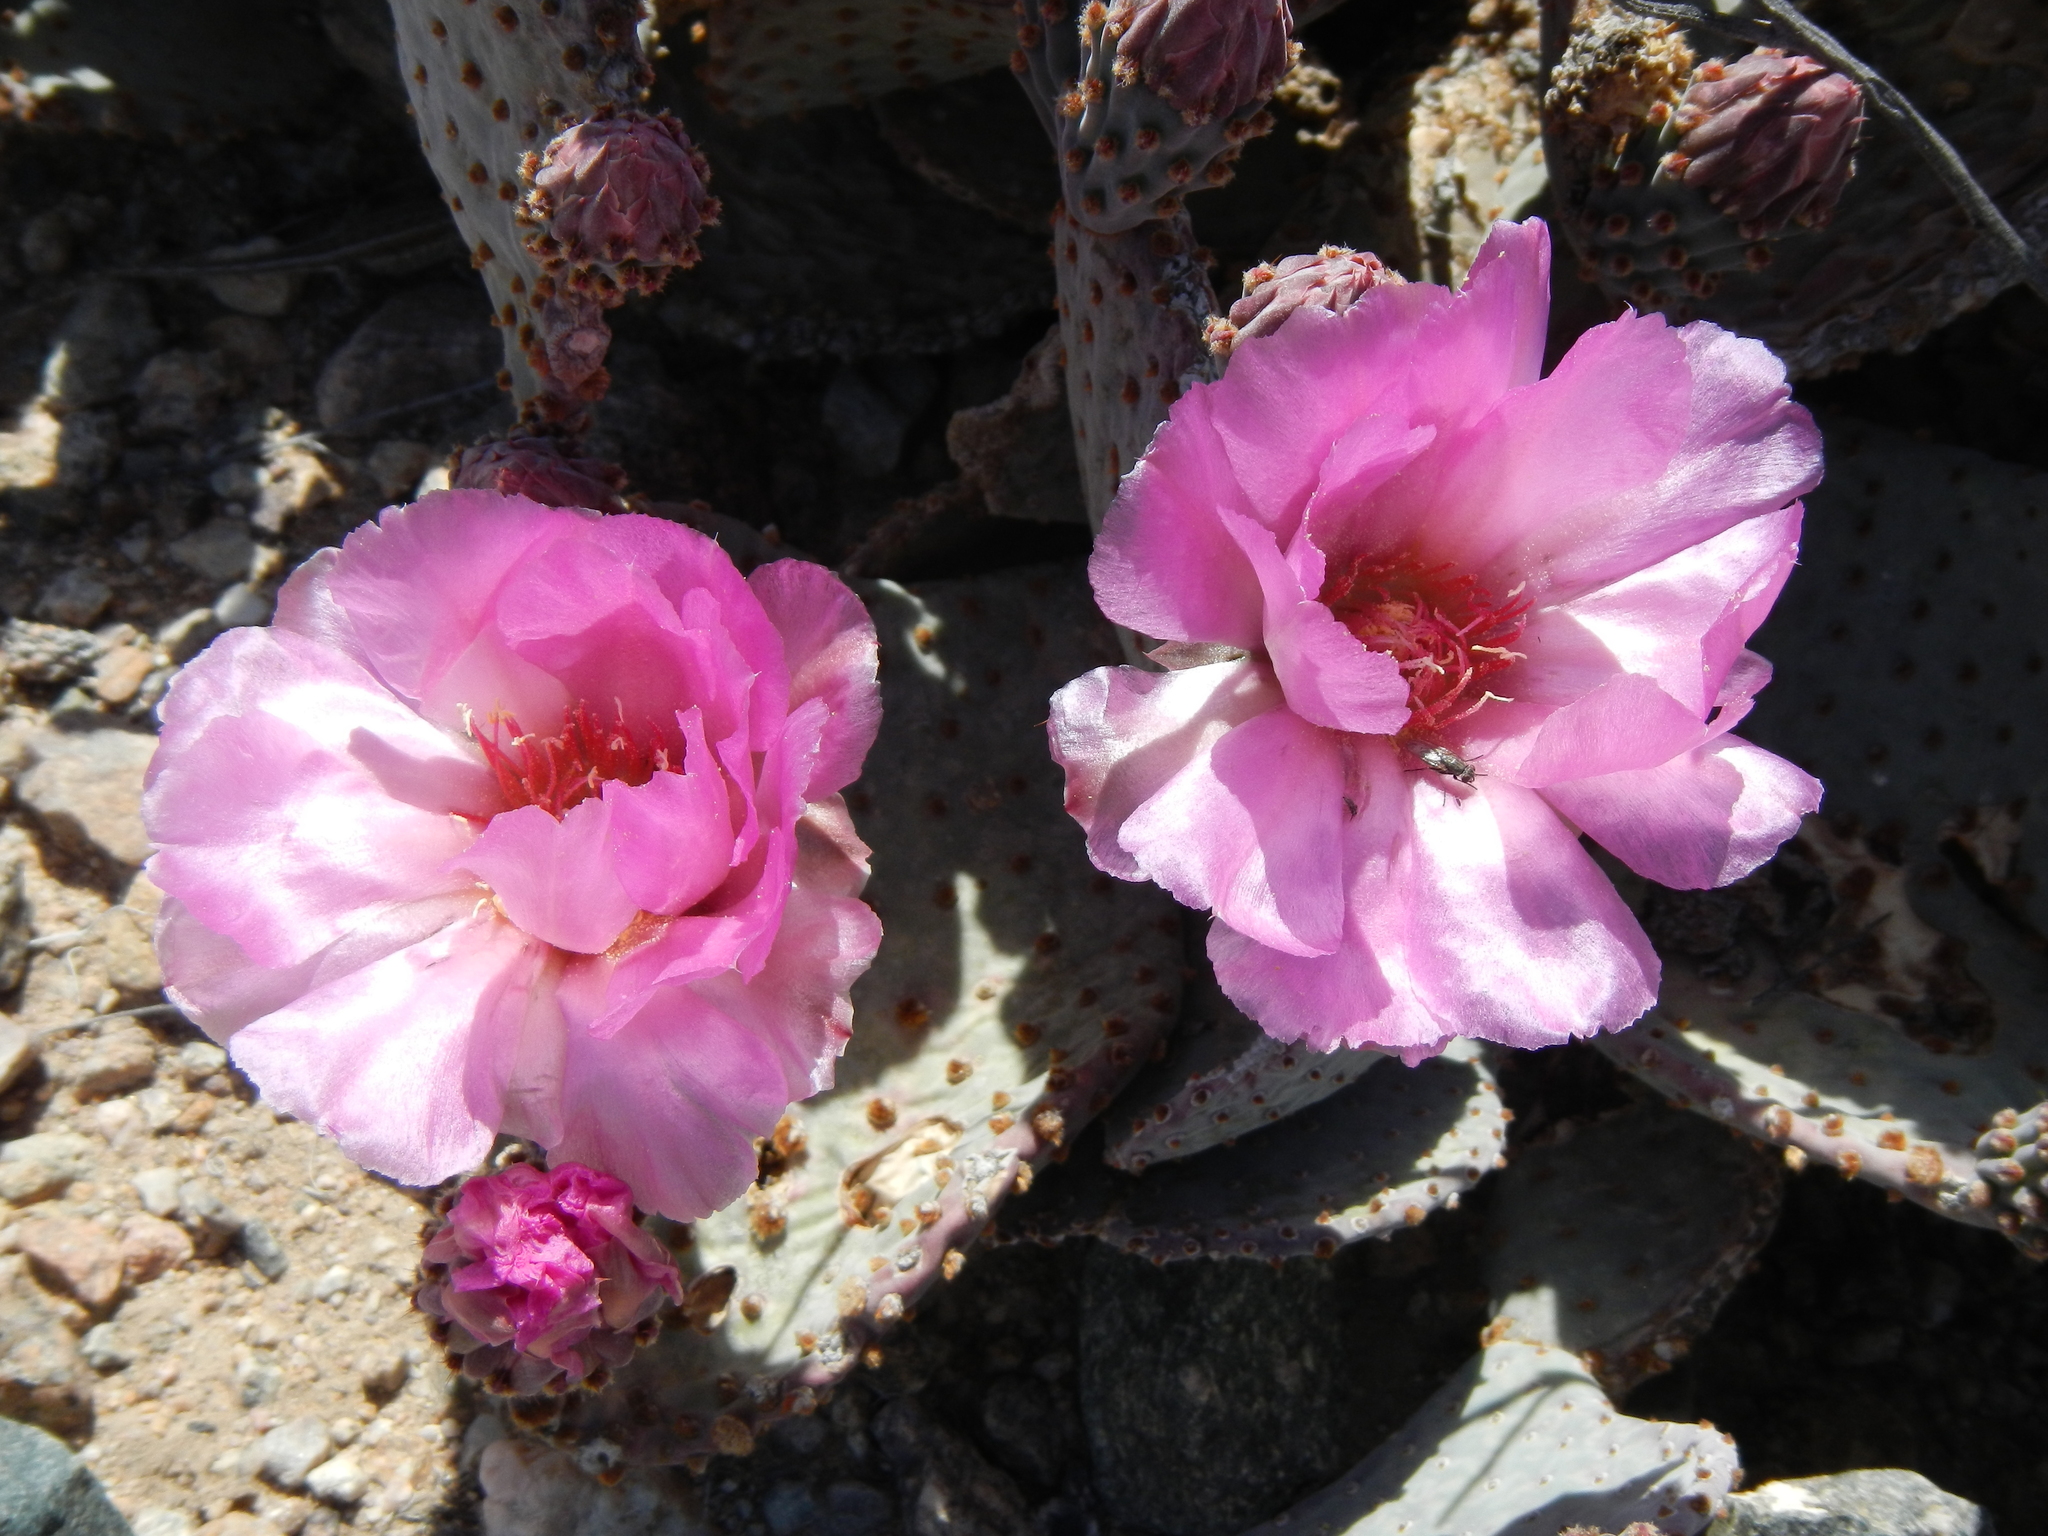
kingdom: Plantae
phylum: Tracheophyta
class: Magnoliopsida
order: Caryophyllales
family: Cactaceae
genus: Opuntia
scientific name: Opuntia basilaris
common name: Beavertail prickly-pear
